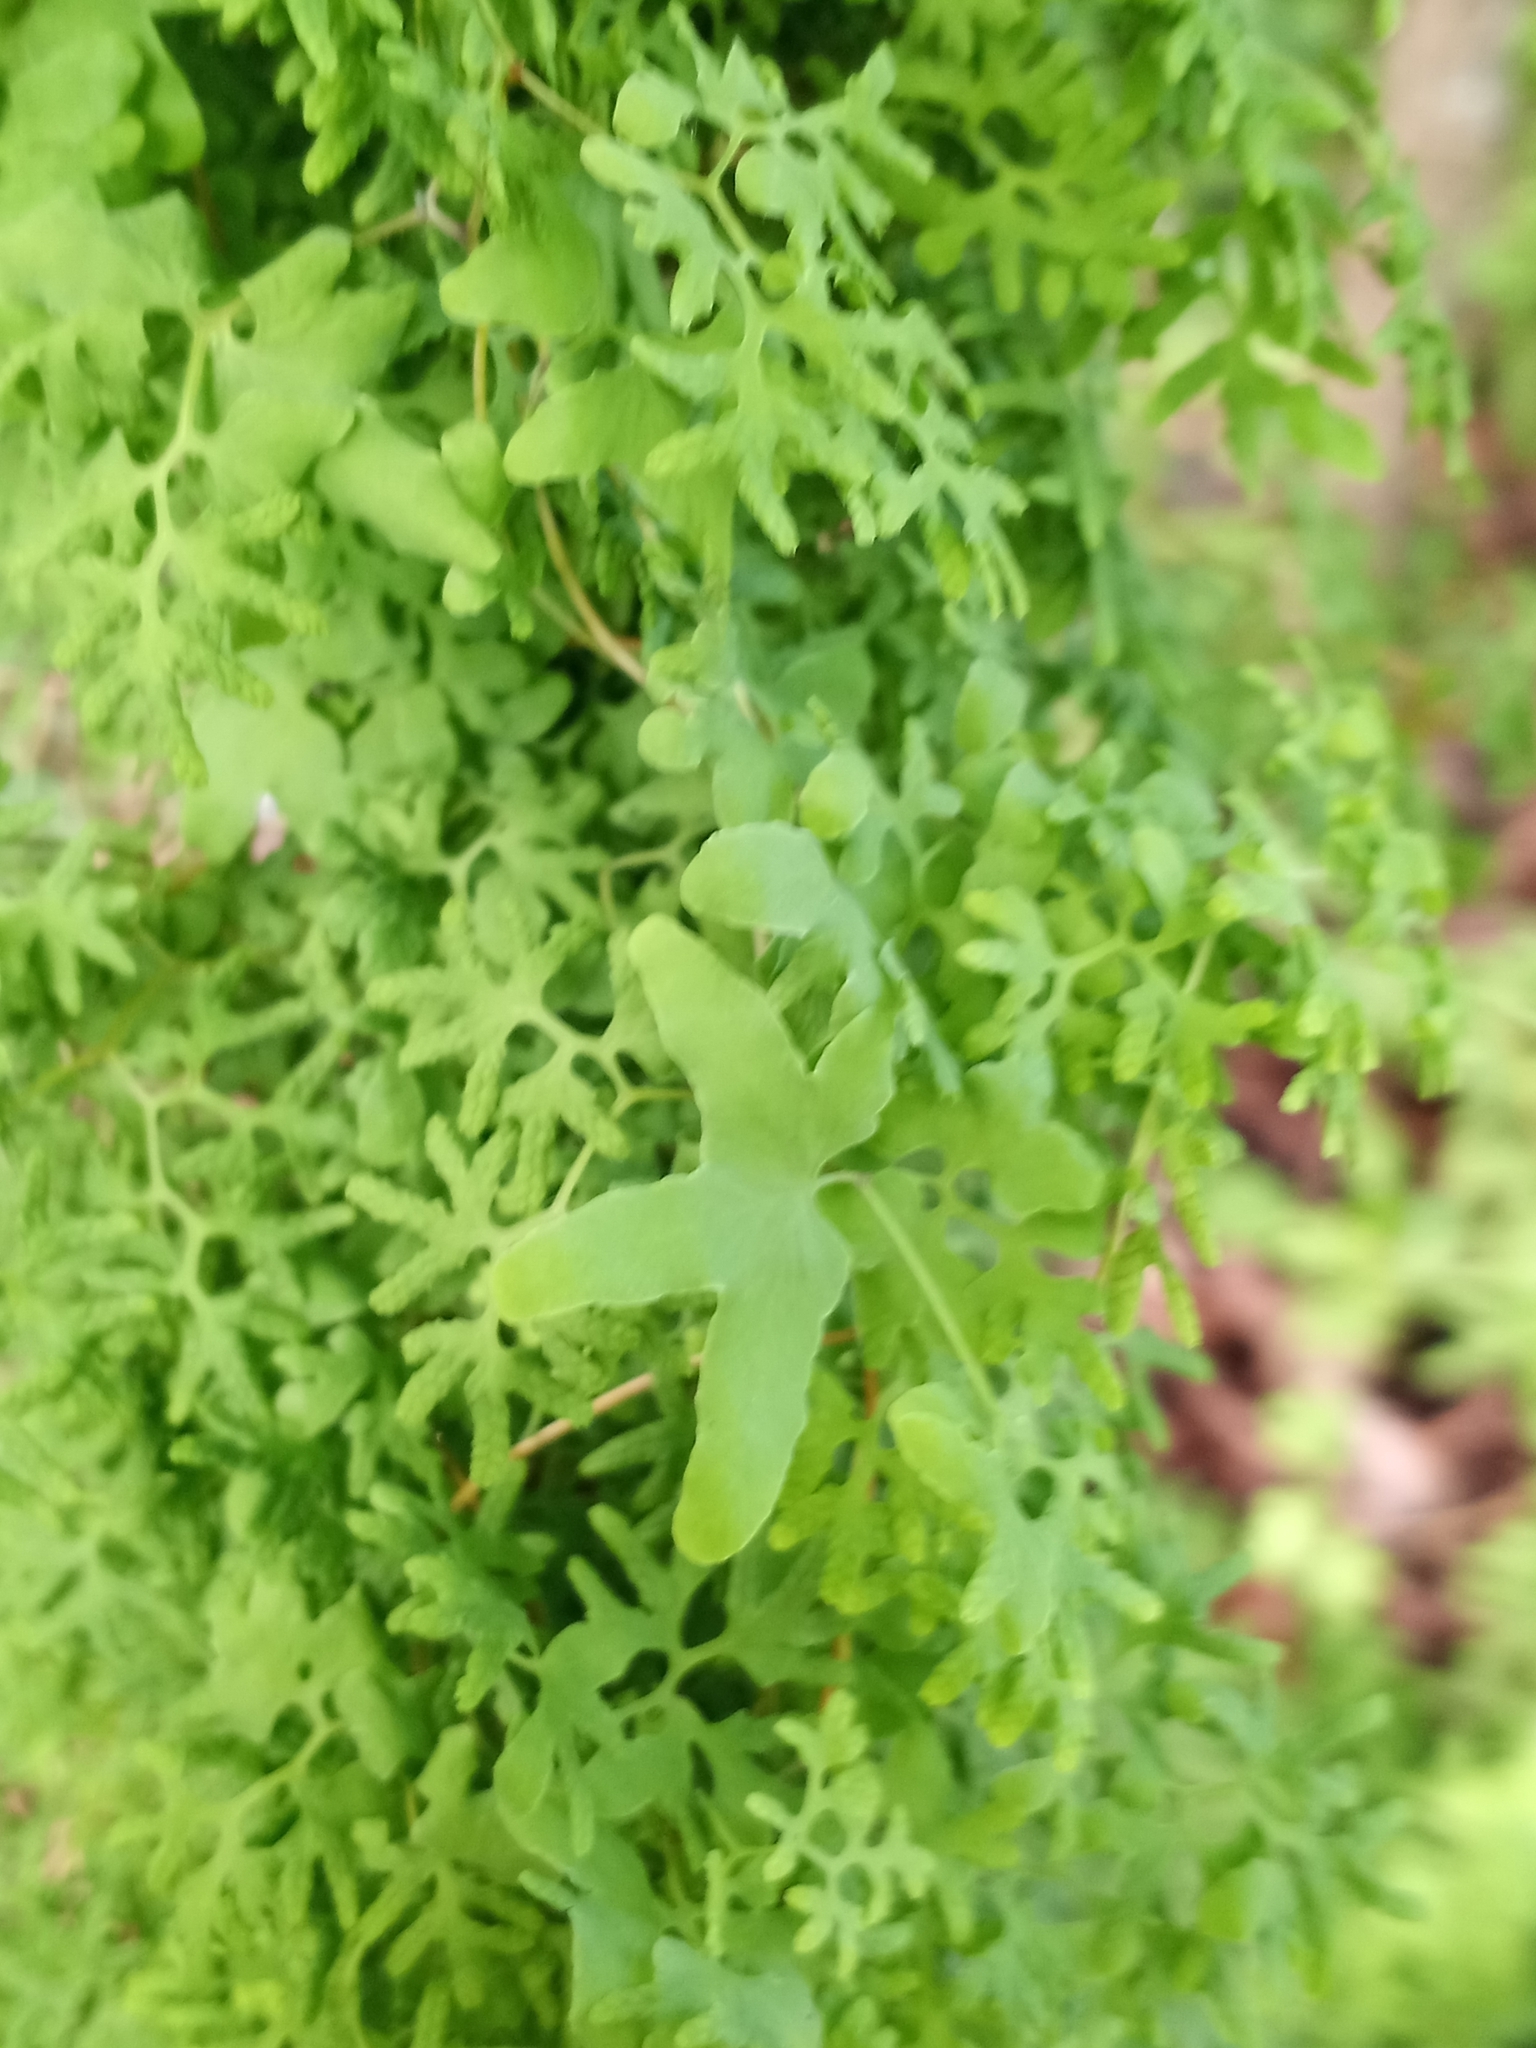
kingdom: Plantae
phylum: Tracheophyta
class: Polypodiopsida
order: Schizaeales
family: Lygodiaceae
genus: Lygodium
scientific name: Lygodium palmatum
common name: American climbing fern
